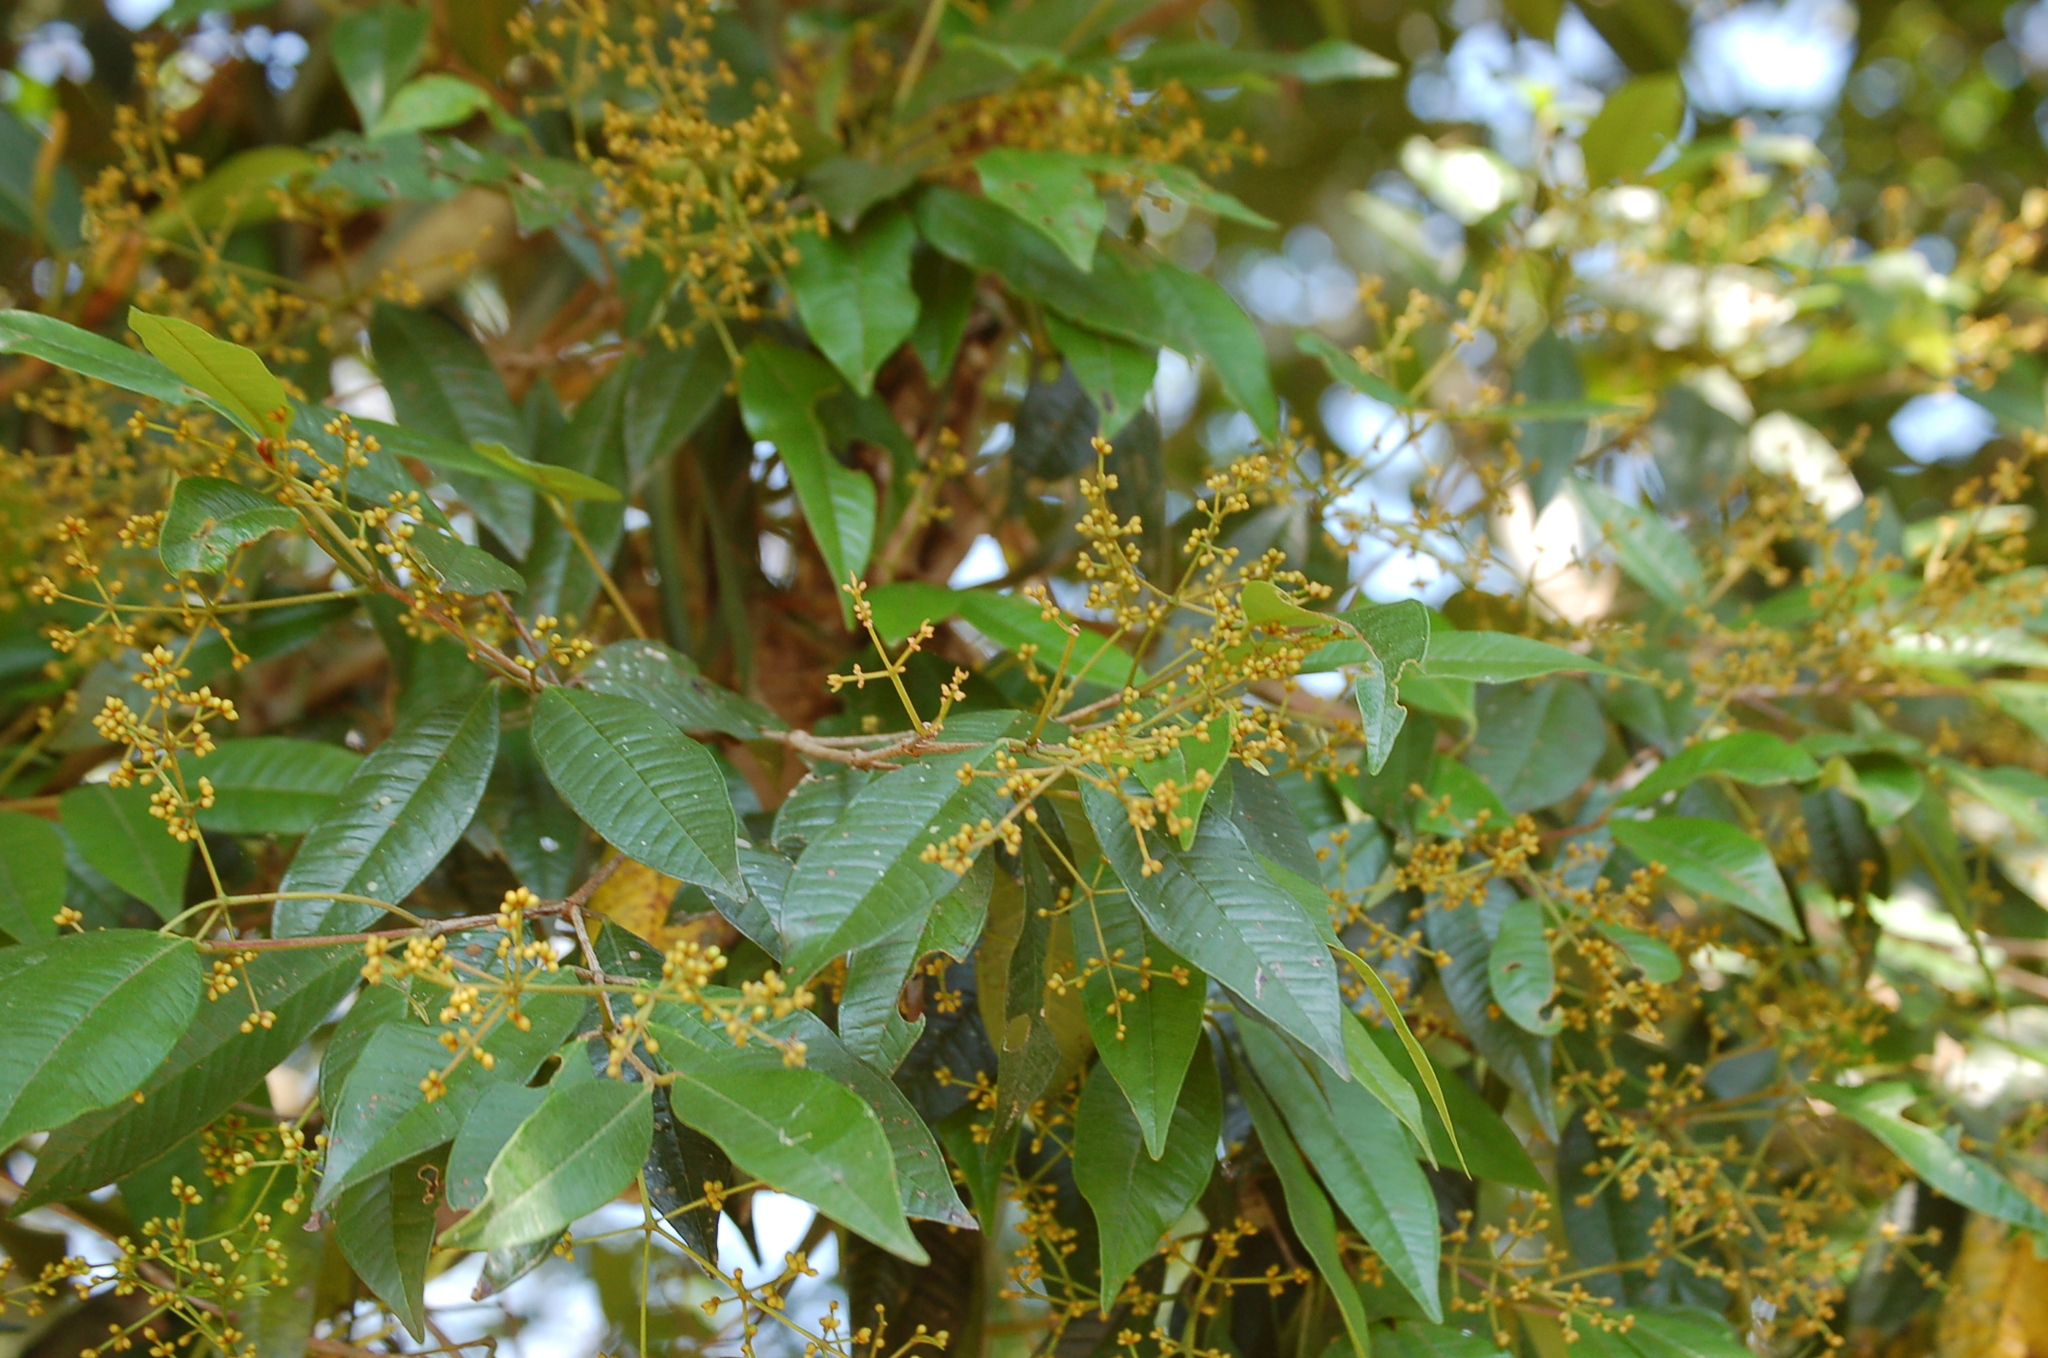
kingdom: Plantae
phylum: Tracheophyta
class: Magnoliopsida
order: Myrtales
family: Myrtaceae
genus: Myrcia
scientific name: Myrcia neovenulosa
